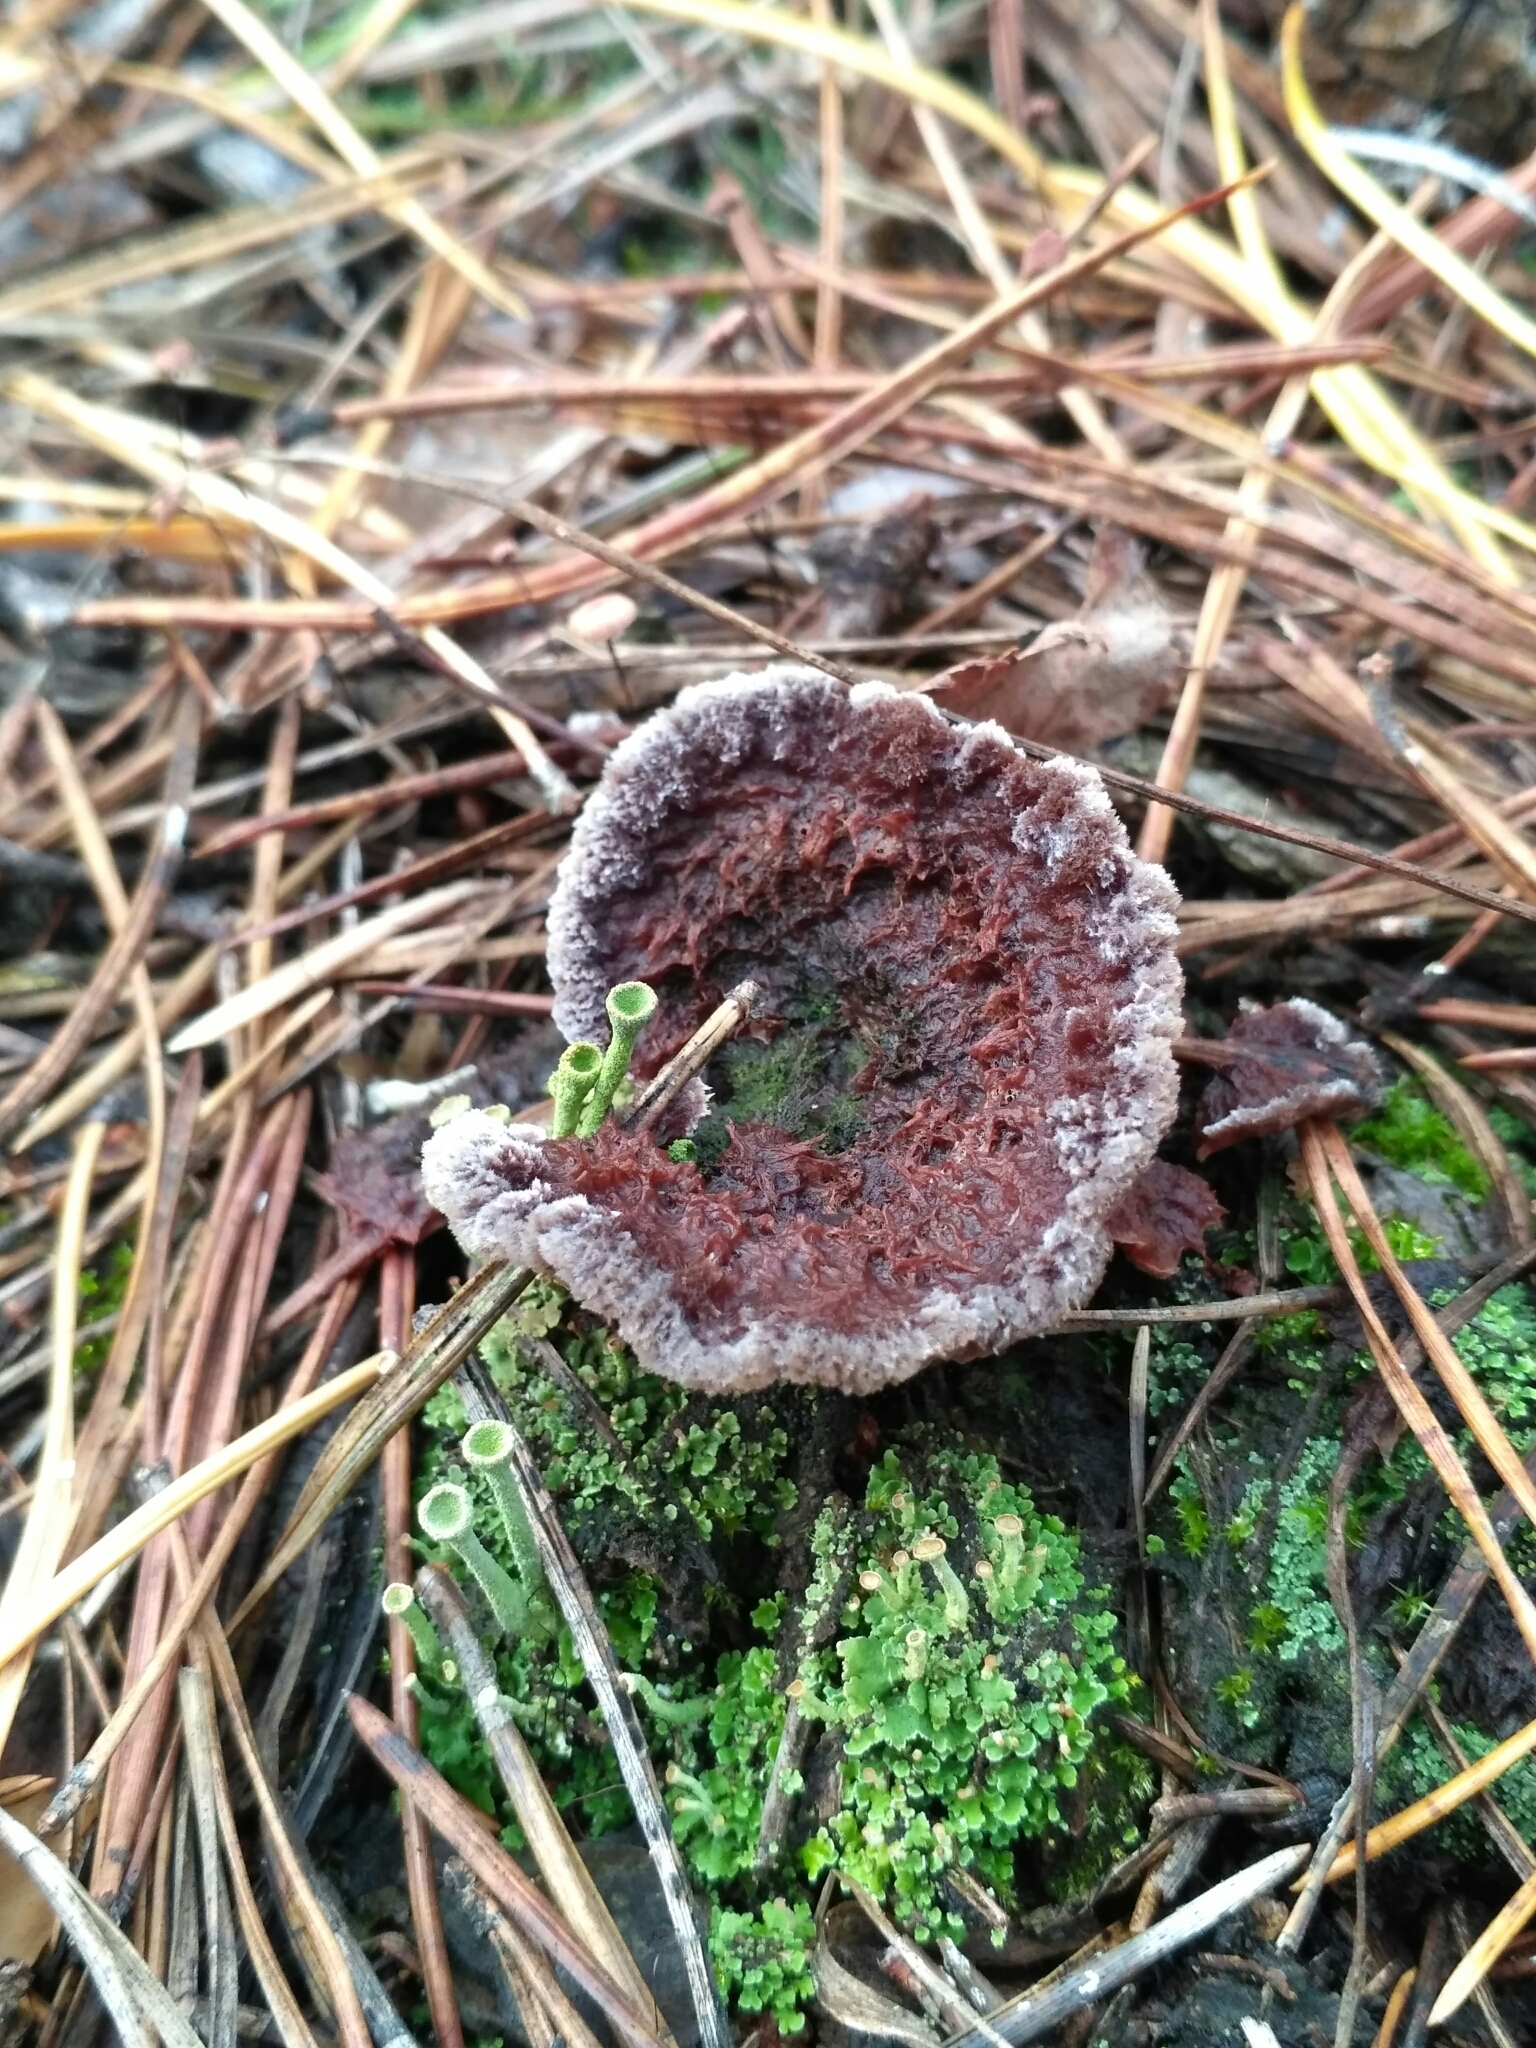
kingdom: Fungi
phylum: Basidiomycota
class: Agaricomycetes
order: Thelephorales
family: Thelephoraceae
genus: Thelephora
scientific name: Thelephora terrestris
